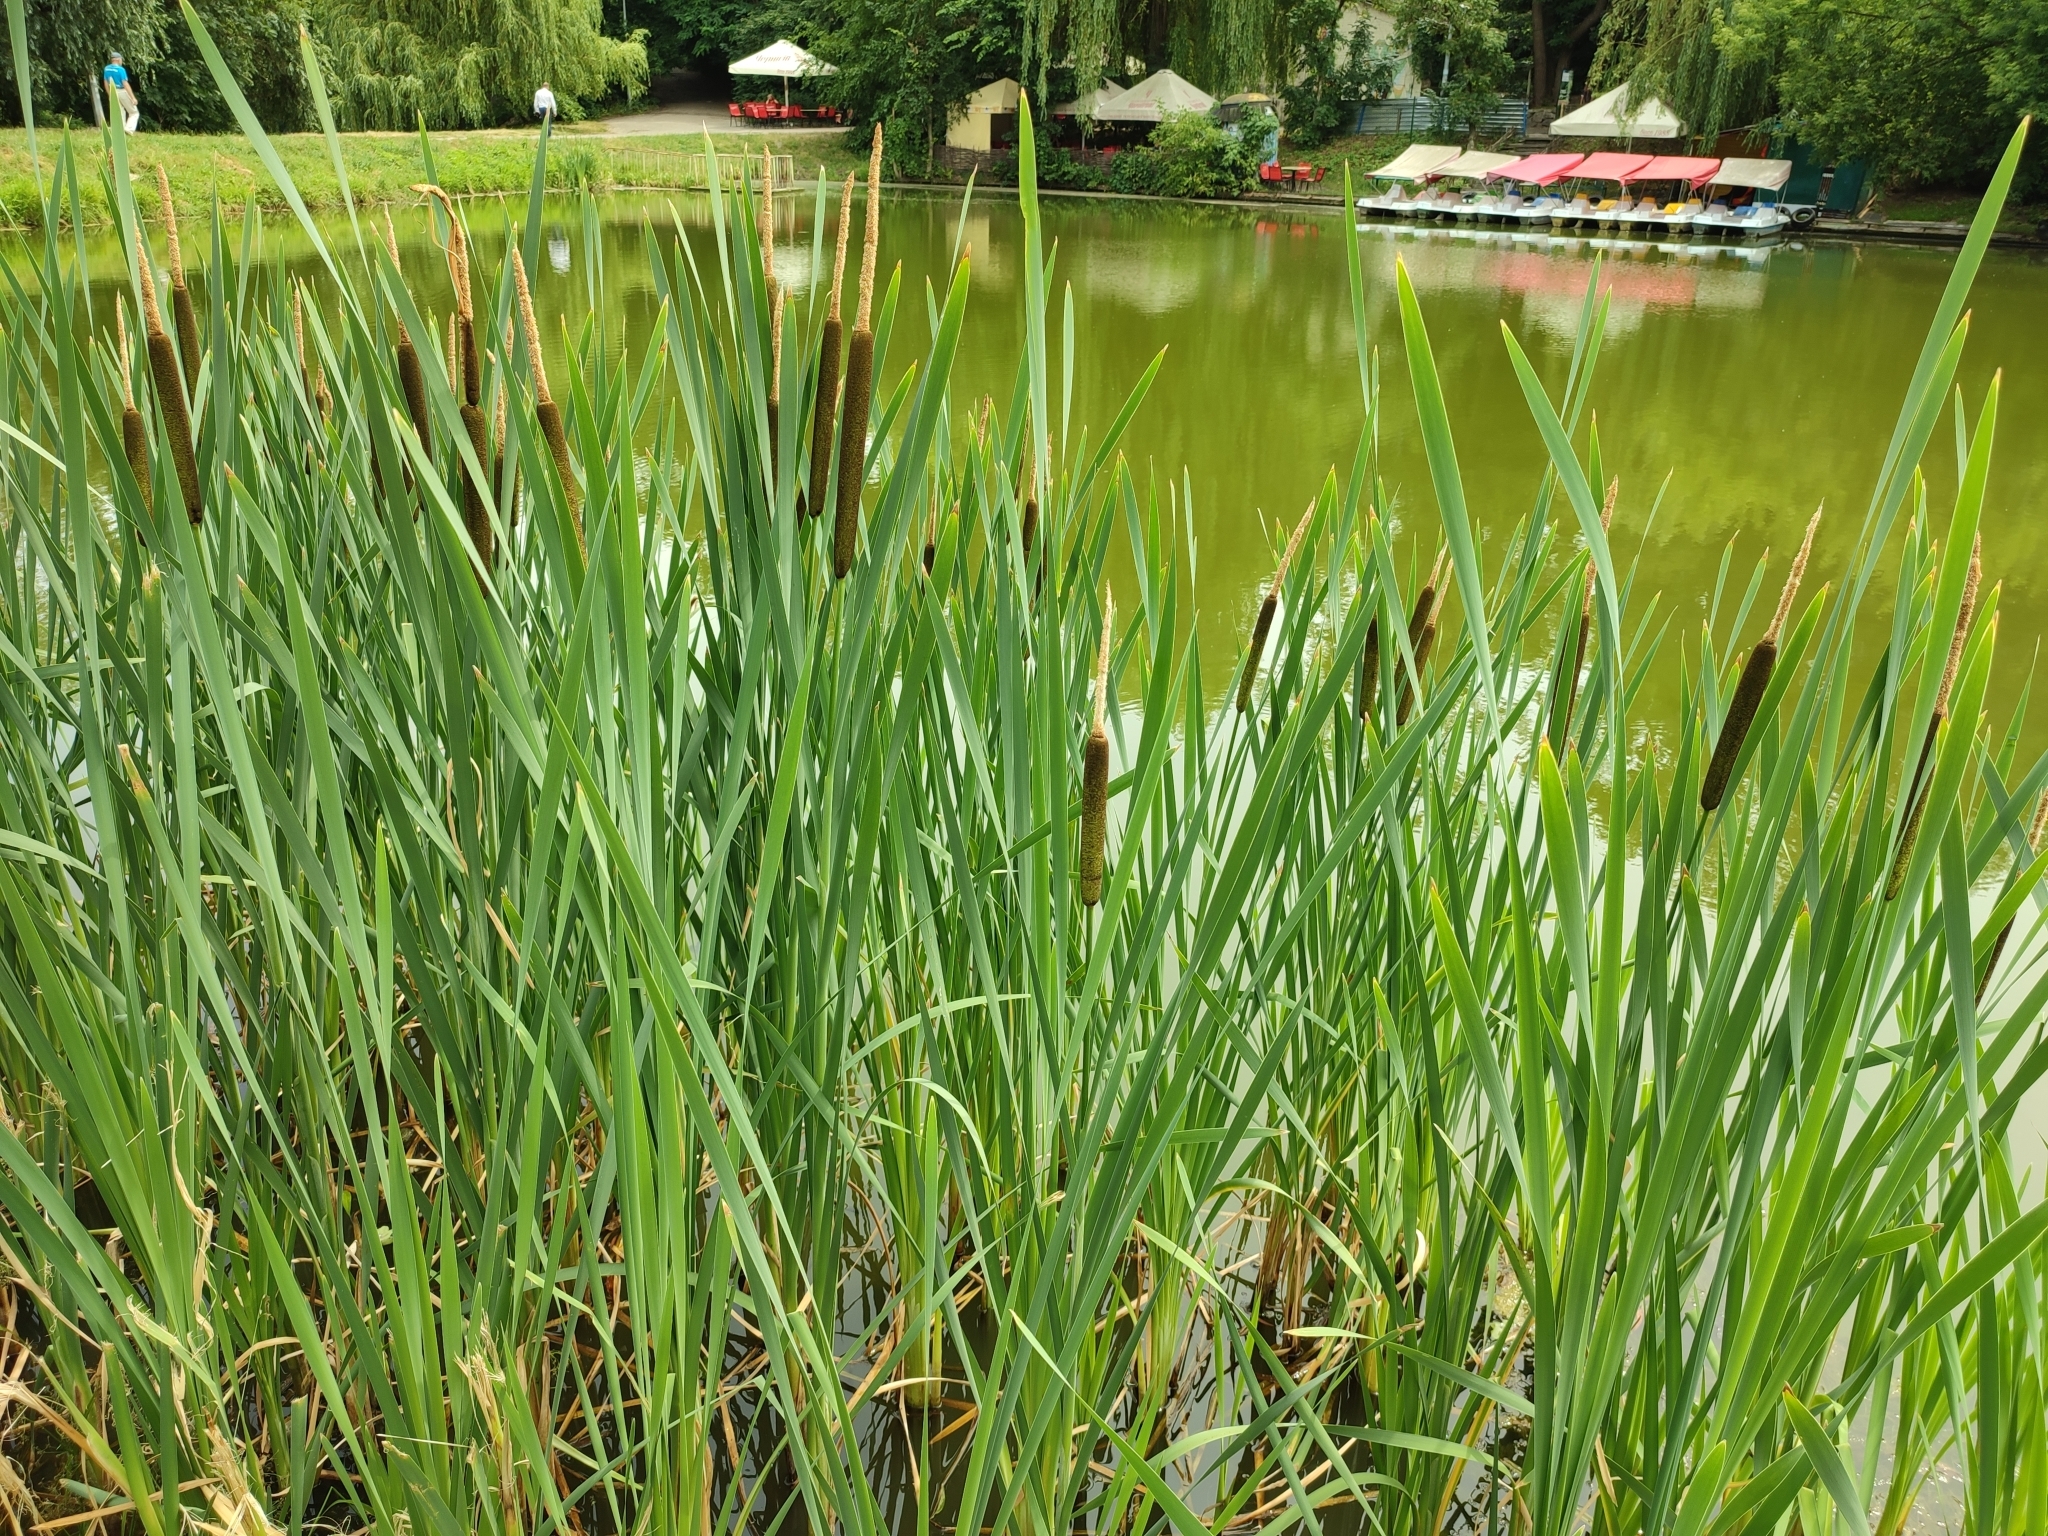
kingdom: Plantae
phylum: Tracheophyta
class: Liliopsida
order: Poales
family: Typhaceae
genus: Typha
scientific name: Typha latifolia
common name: Broadleaf cattail
